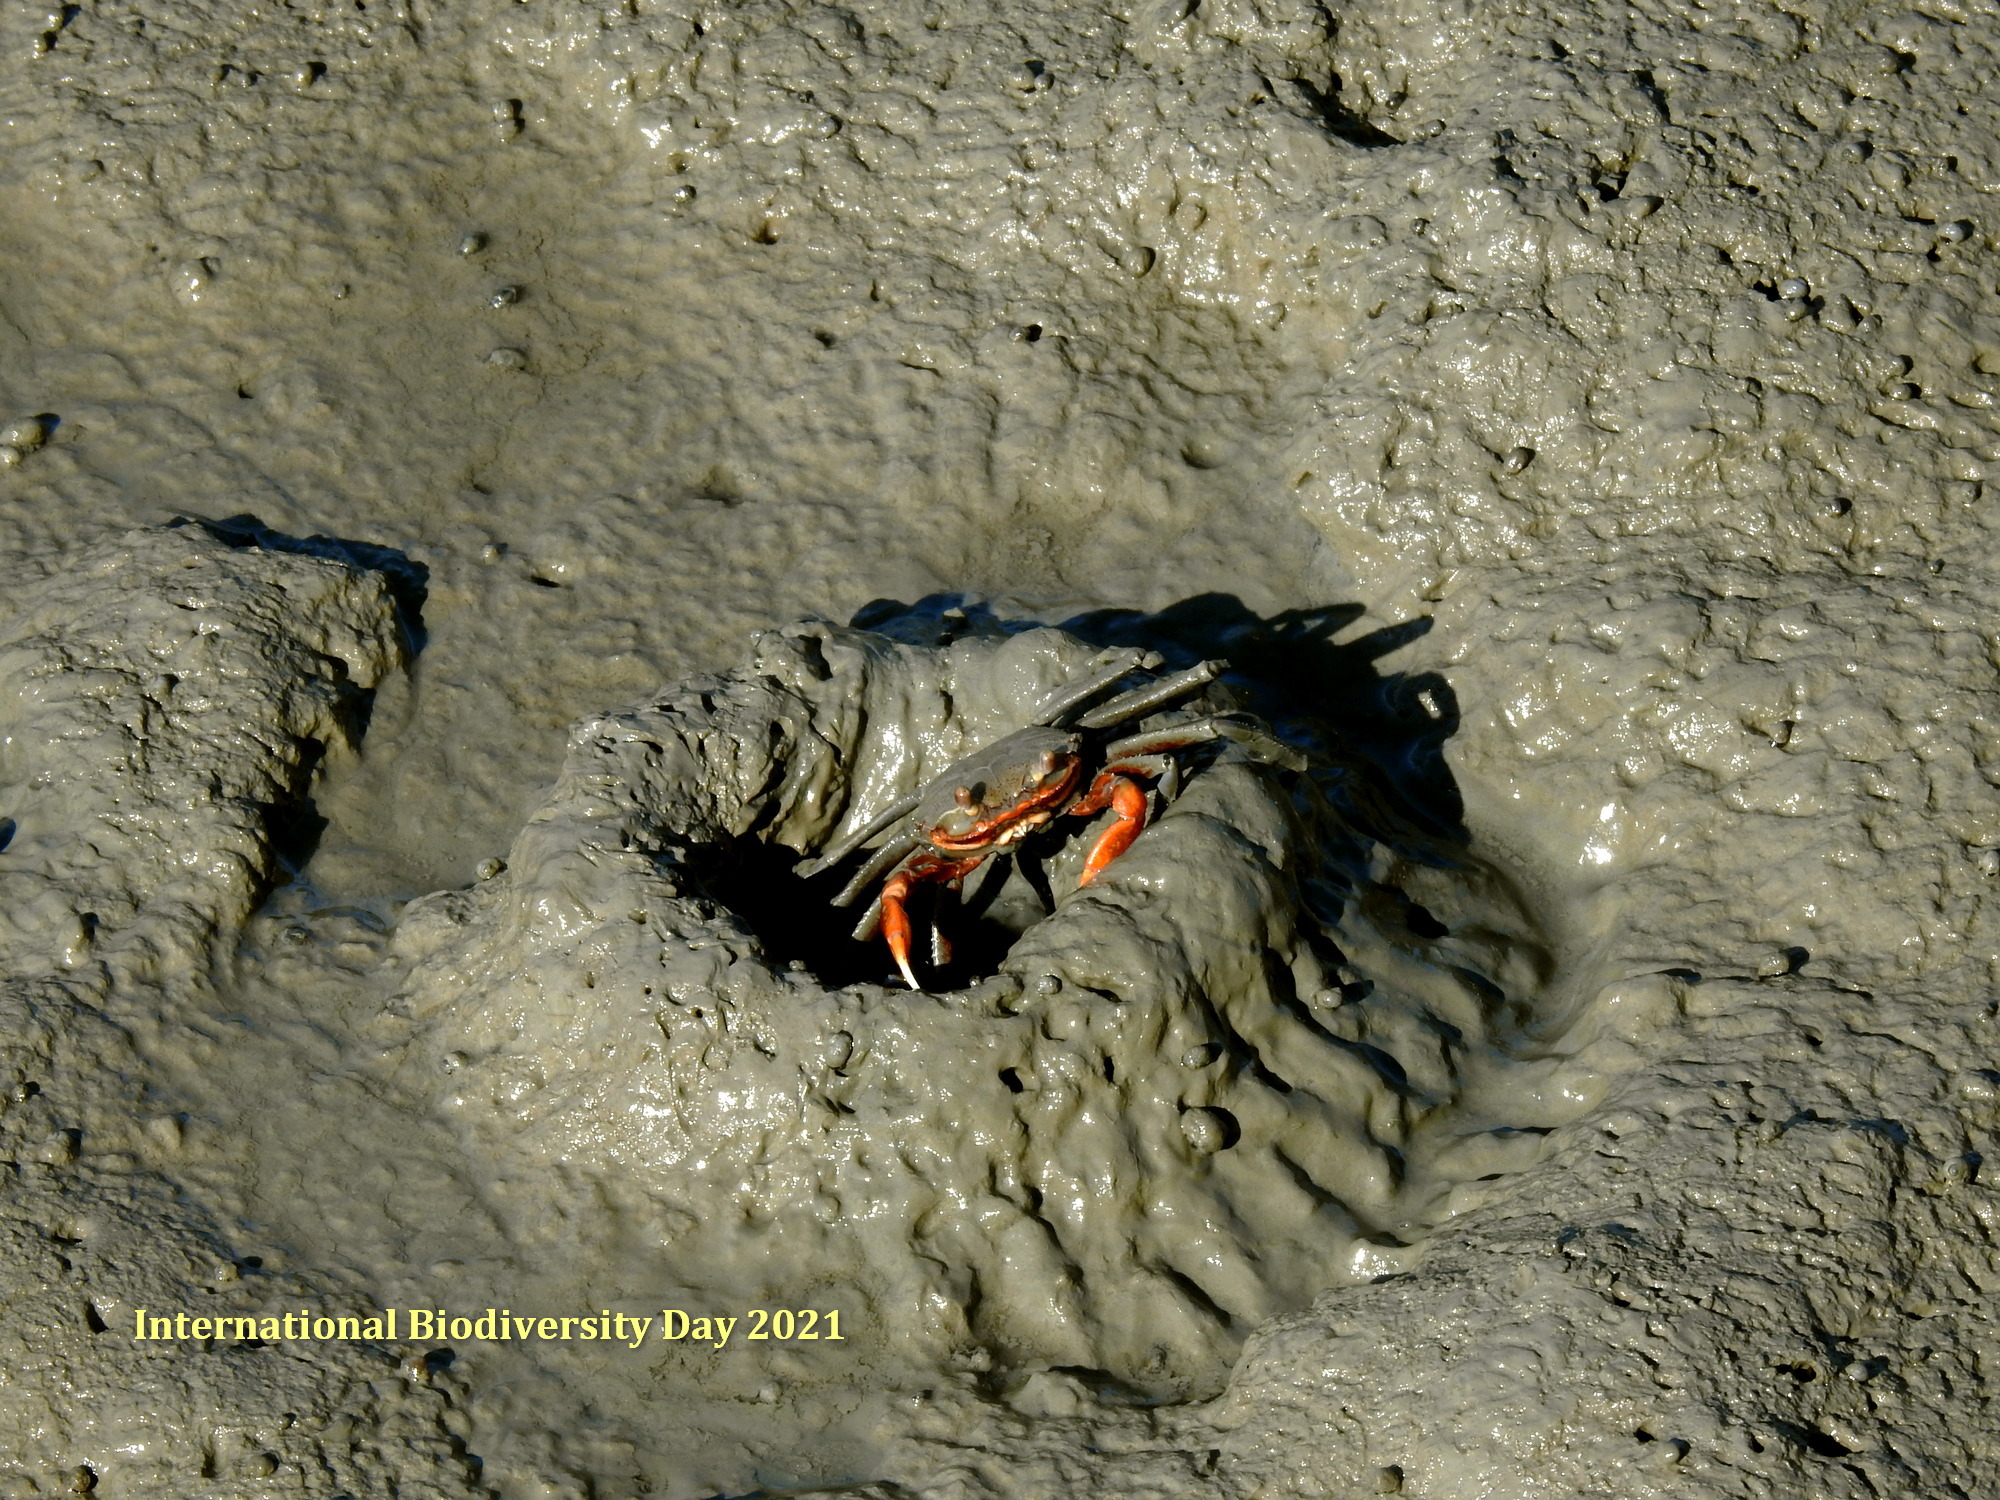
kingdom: Animalia
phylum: Arthropoda
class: Malacostraca
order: Decapoda
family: Varunidae
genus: Metaplax
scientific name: Metaplax elegans
